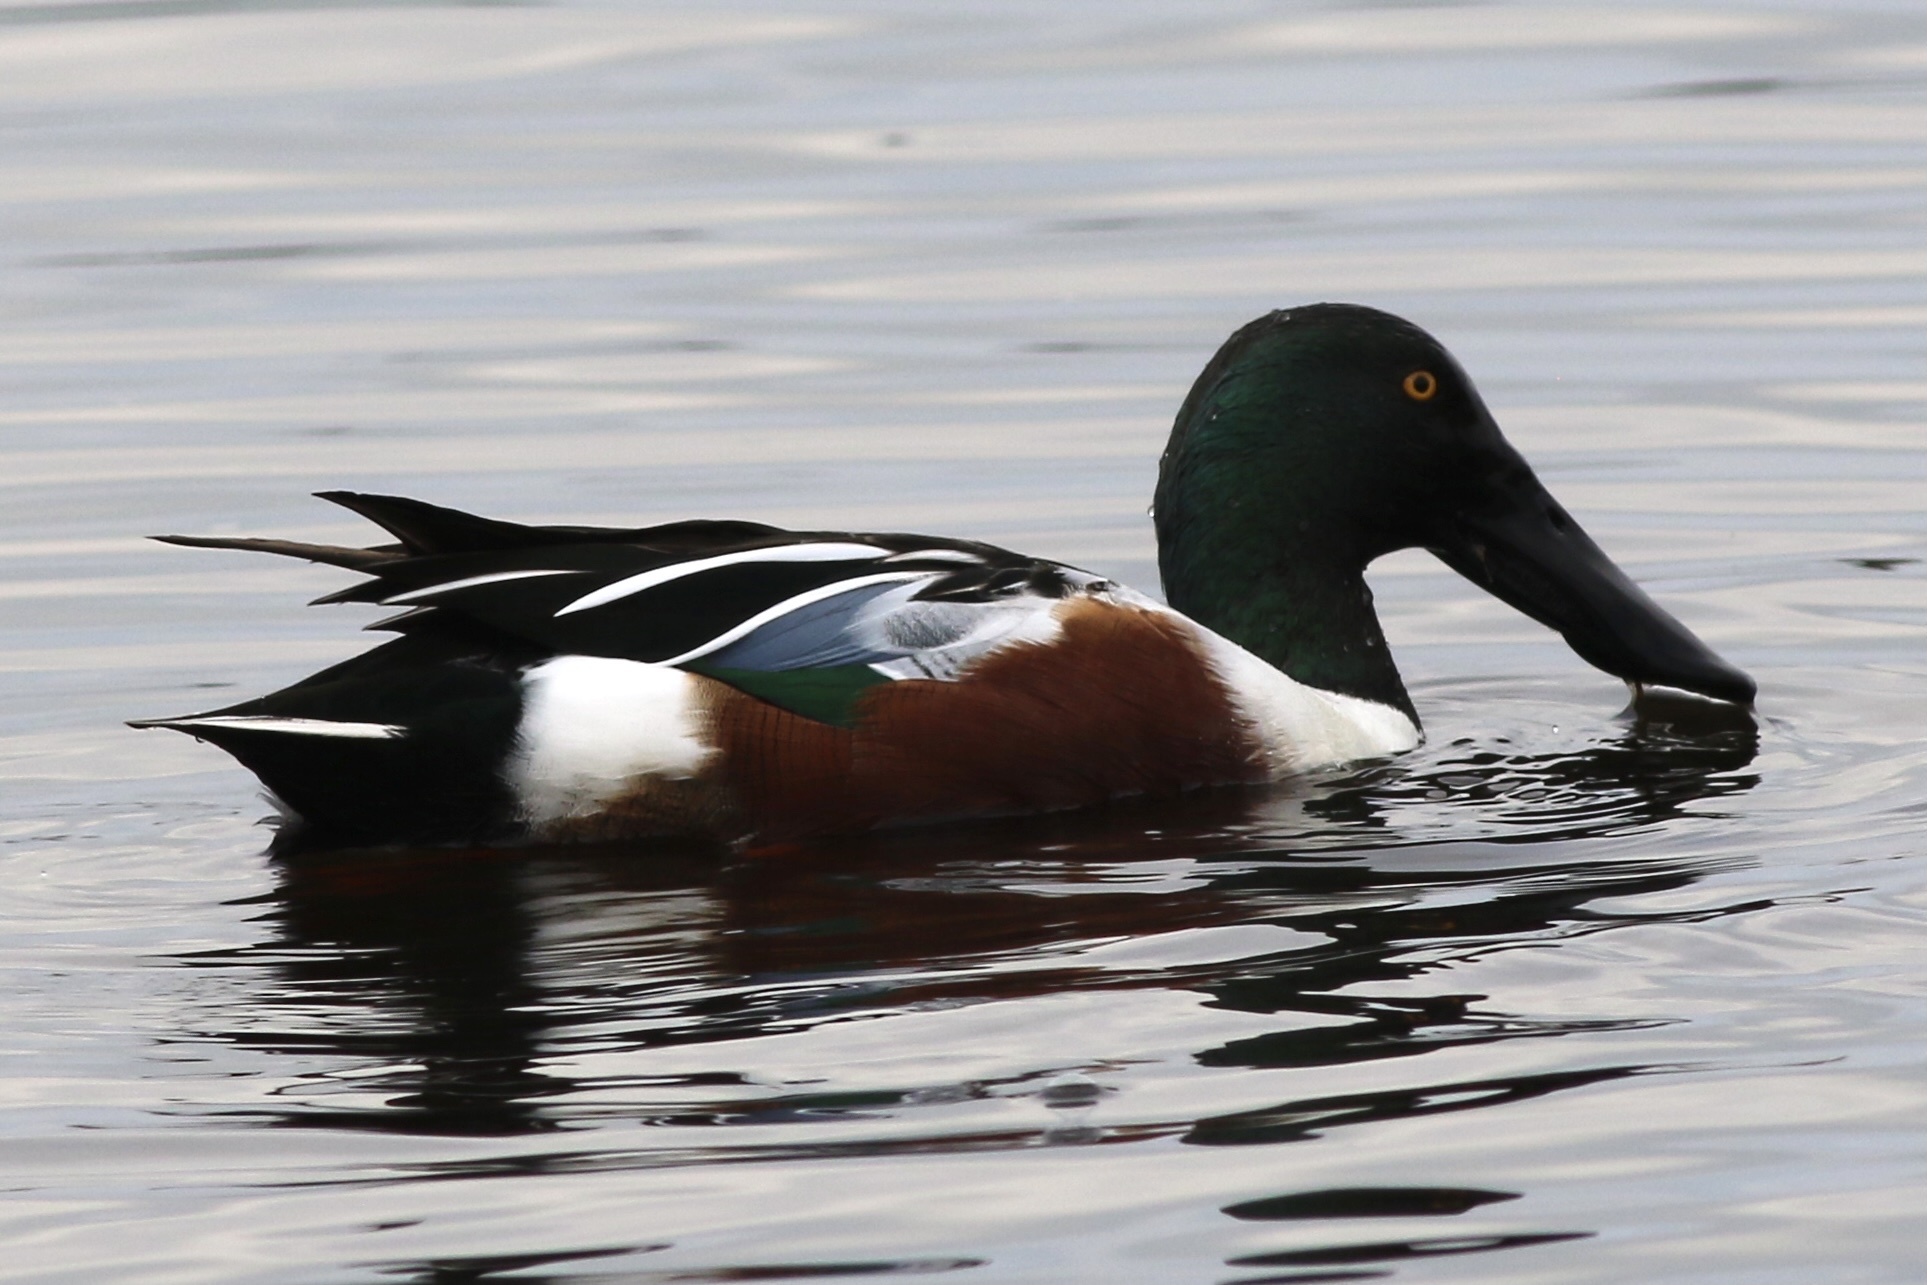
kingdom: Animalia
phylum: Chordata
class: Aves
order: Anseriformes
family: Anatidae
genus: Spatula
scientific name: Spatula clypeata
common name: Northern shoveler
